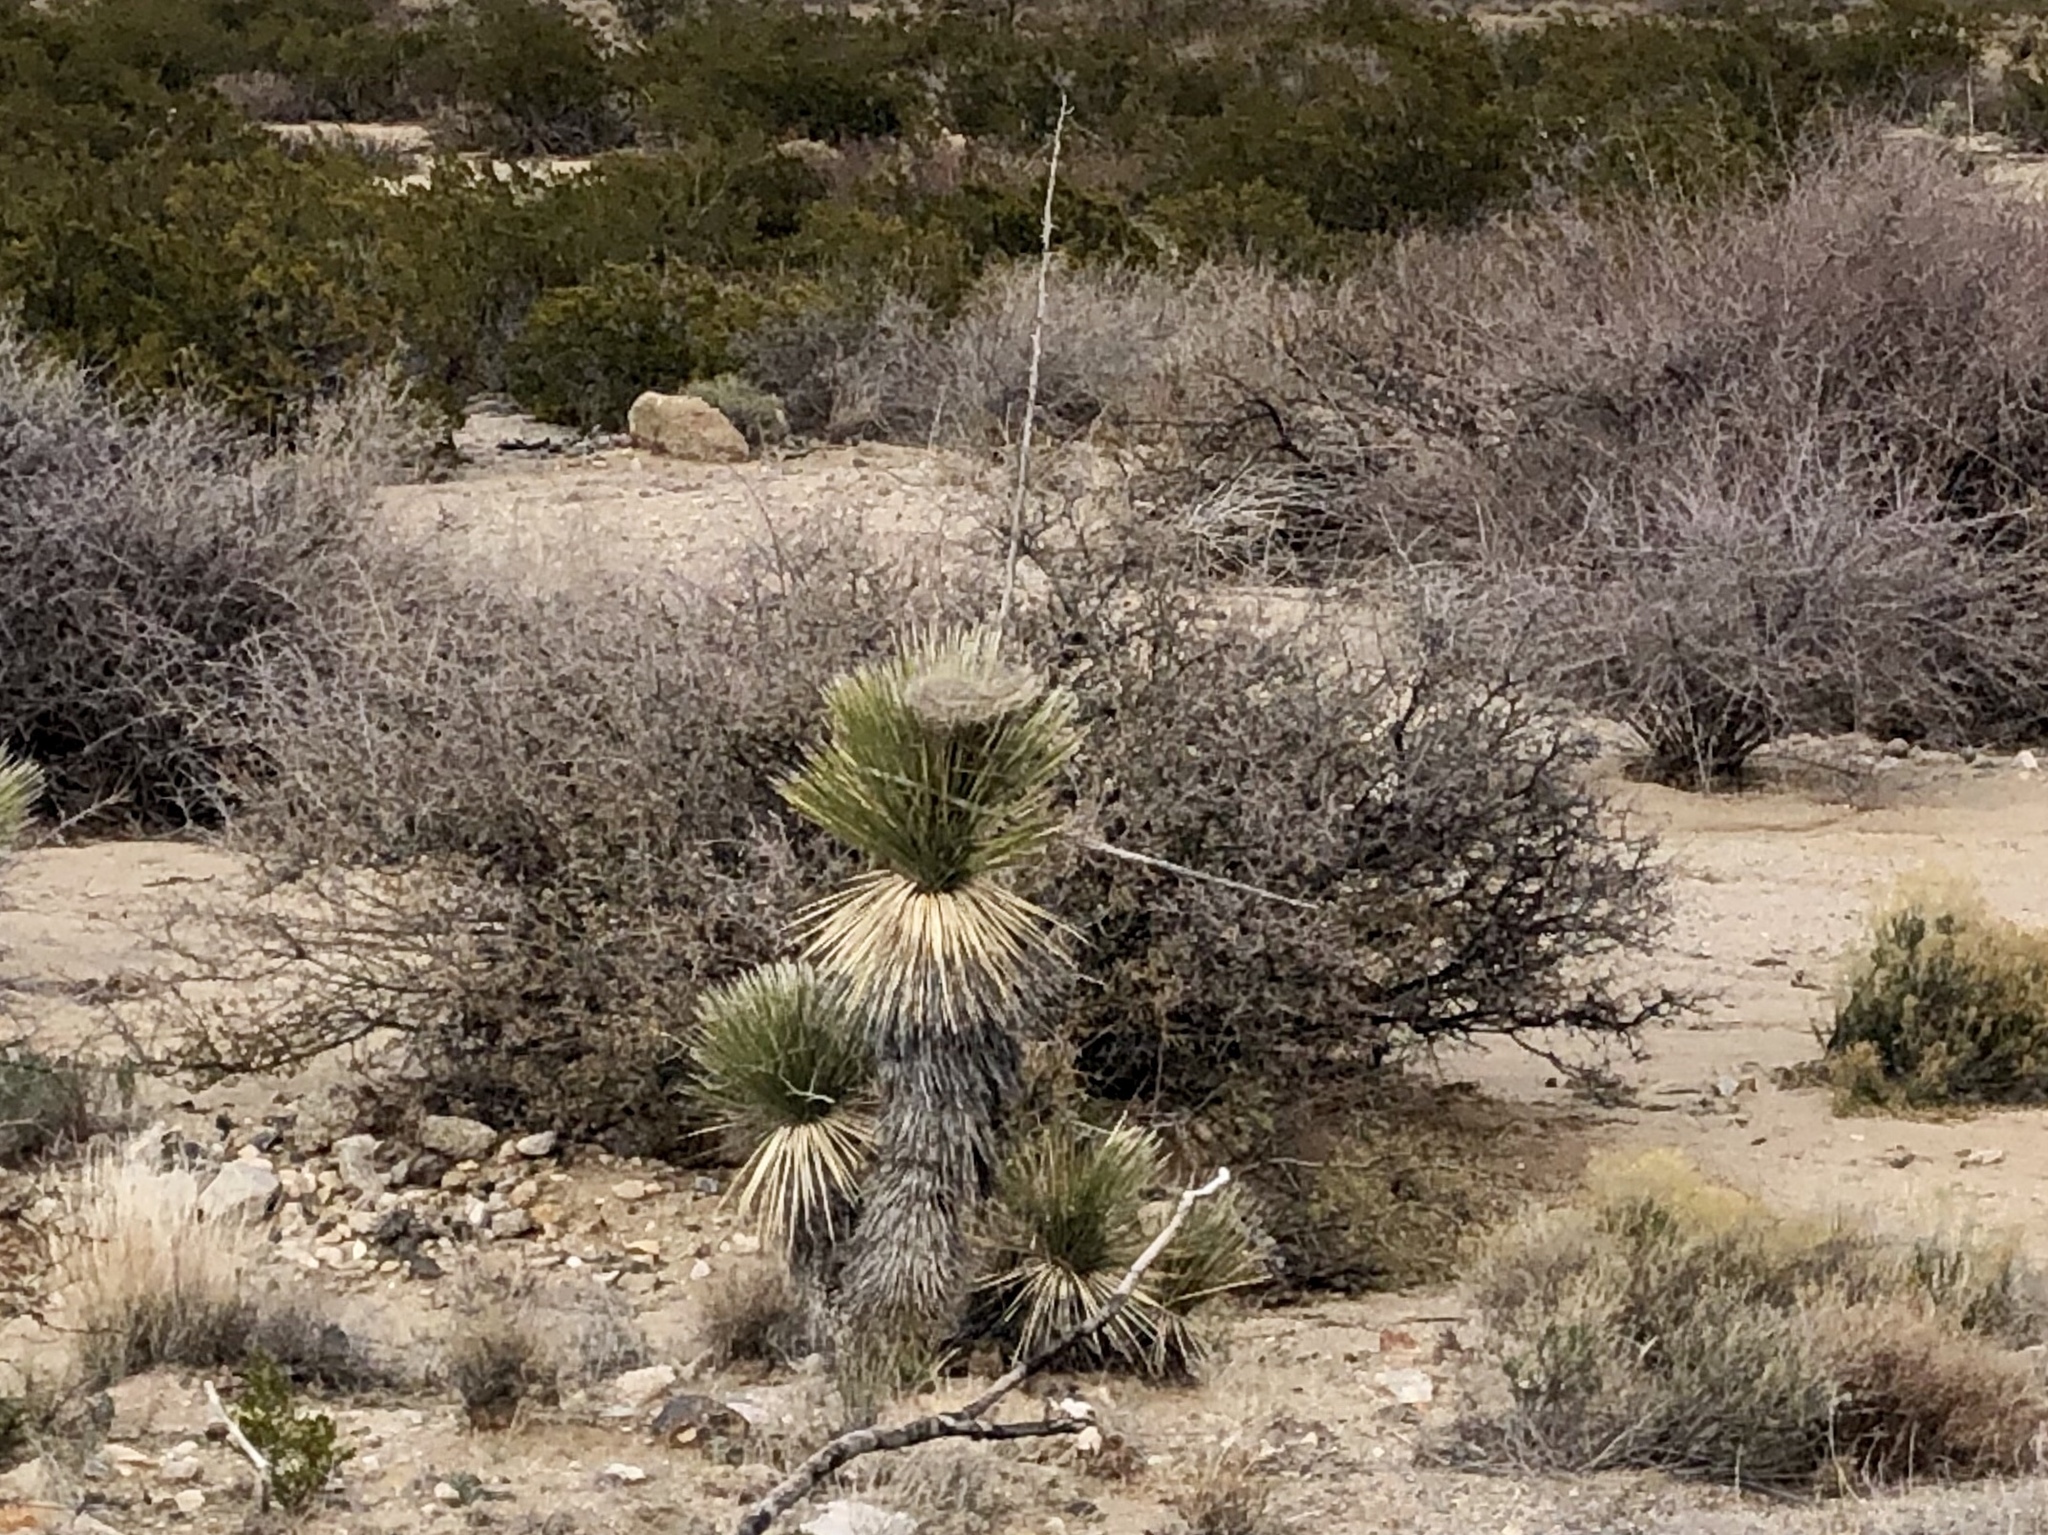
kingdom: Plantae
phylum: Tracheophyta
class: Liliopsida
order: Asparagales
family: Asparagaceae
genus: Yucca
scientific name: Yucca elata
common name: Palmella
